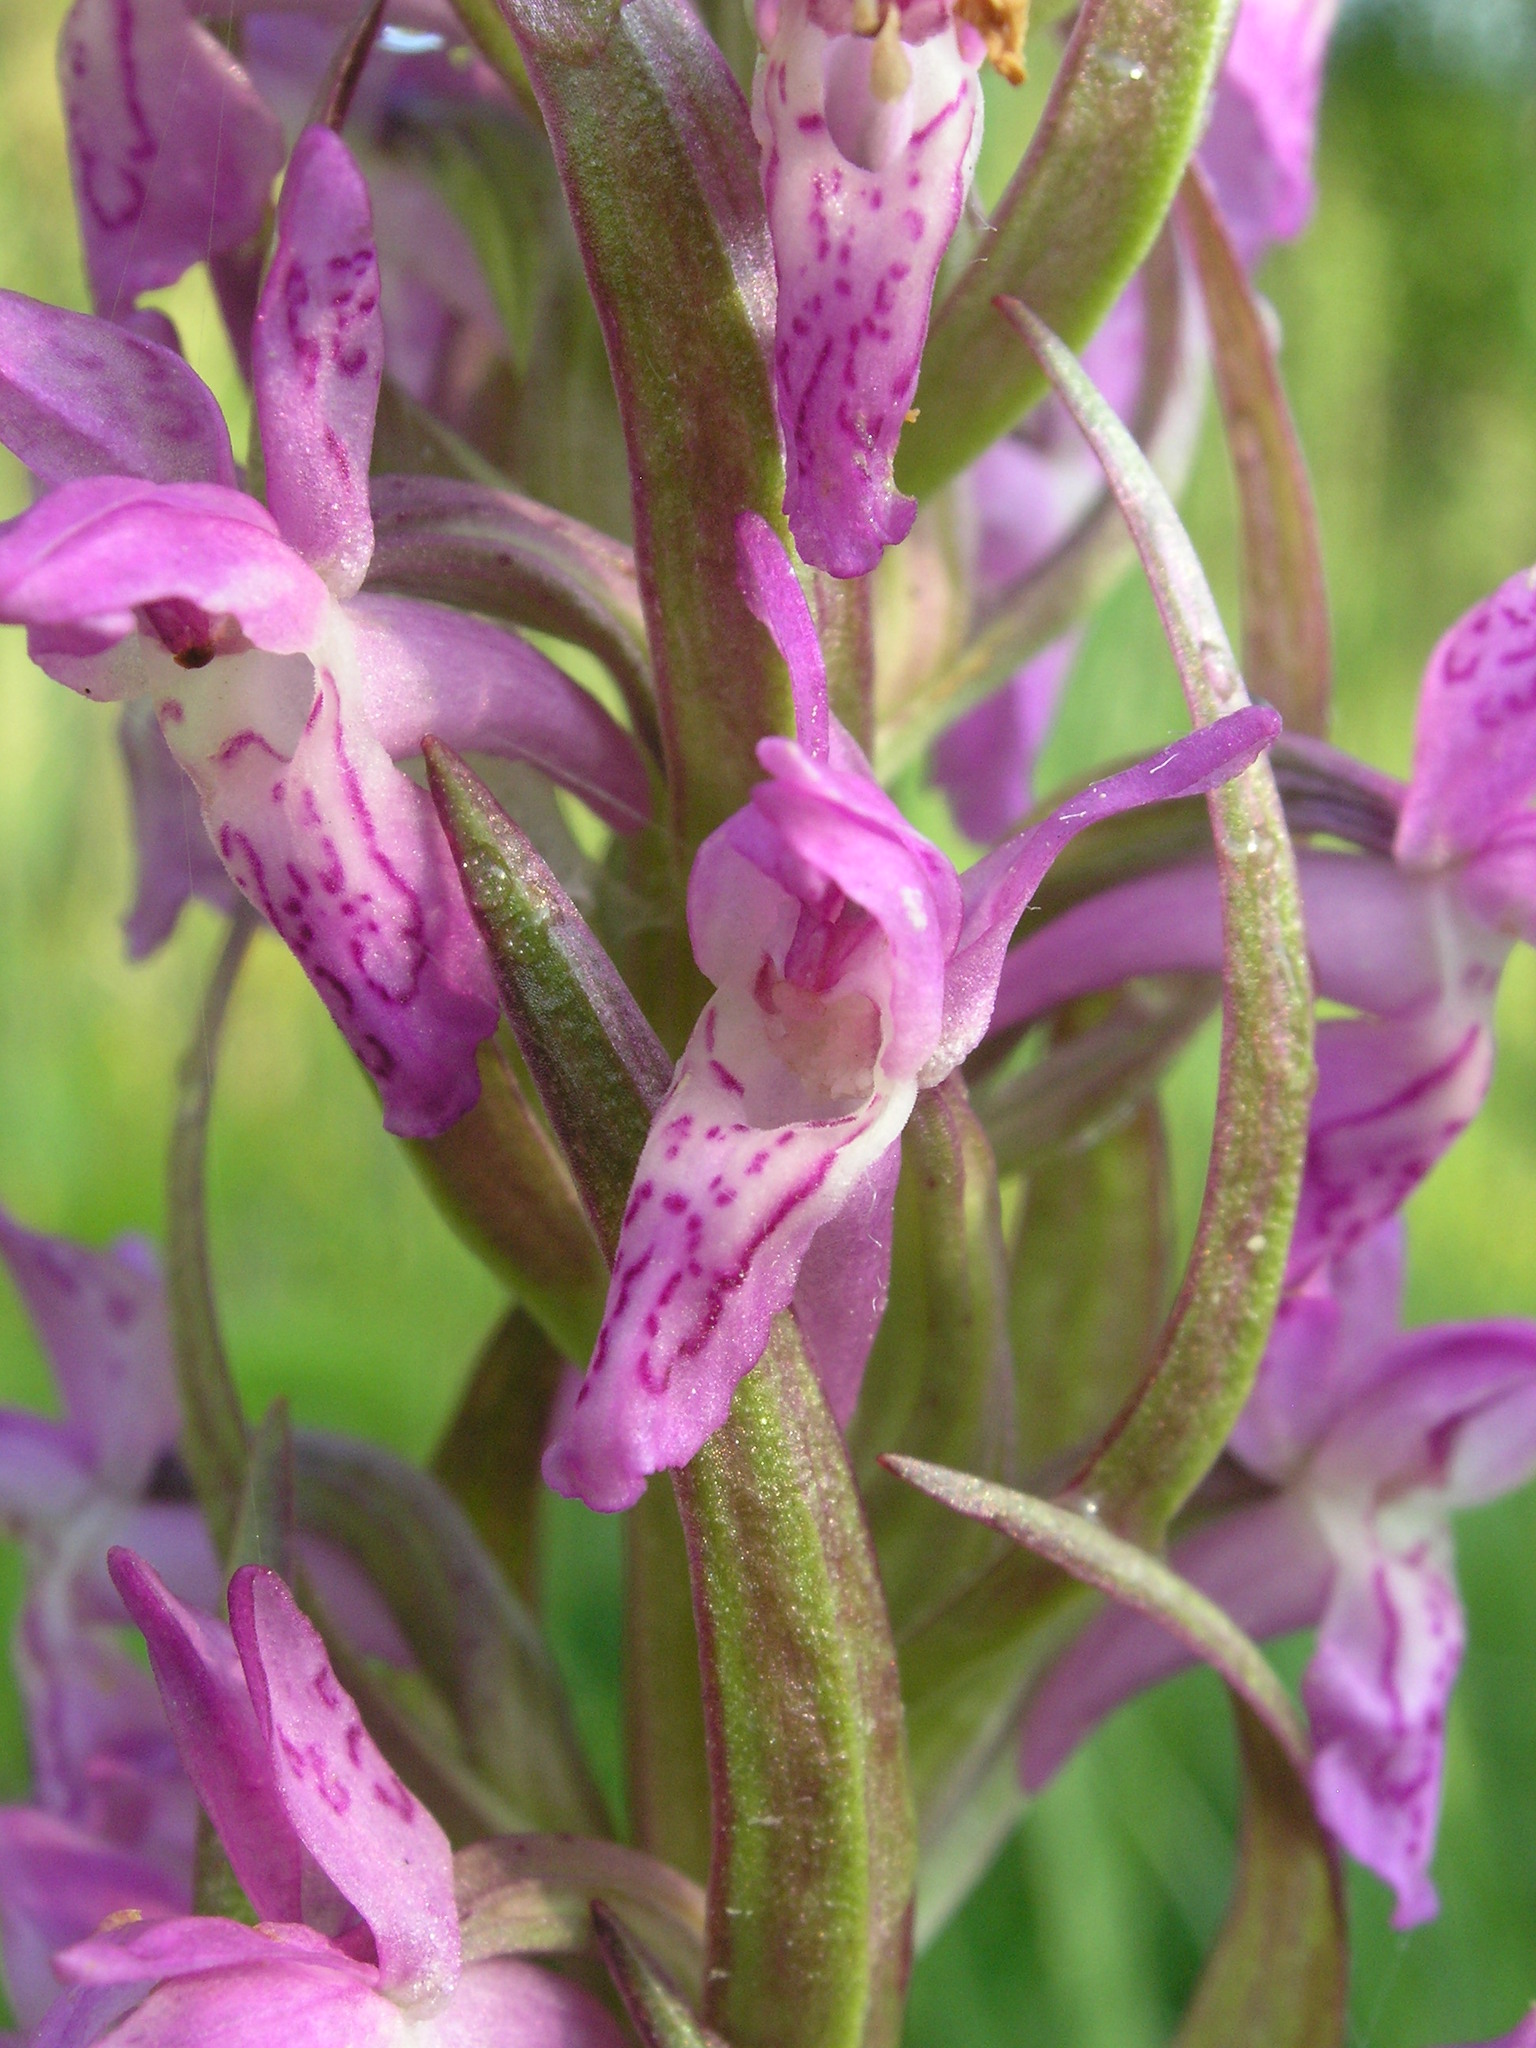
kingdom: Plantae
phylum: Tracheophyta
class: Liliopsida
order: Asparagales
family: Orchidaceae
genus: Dactylorhiza
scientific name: Dactylorhiza incarnata
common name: Early marsh-orchid
